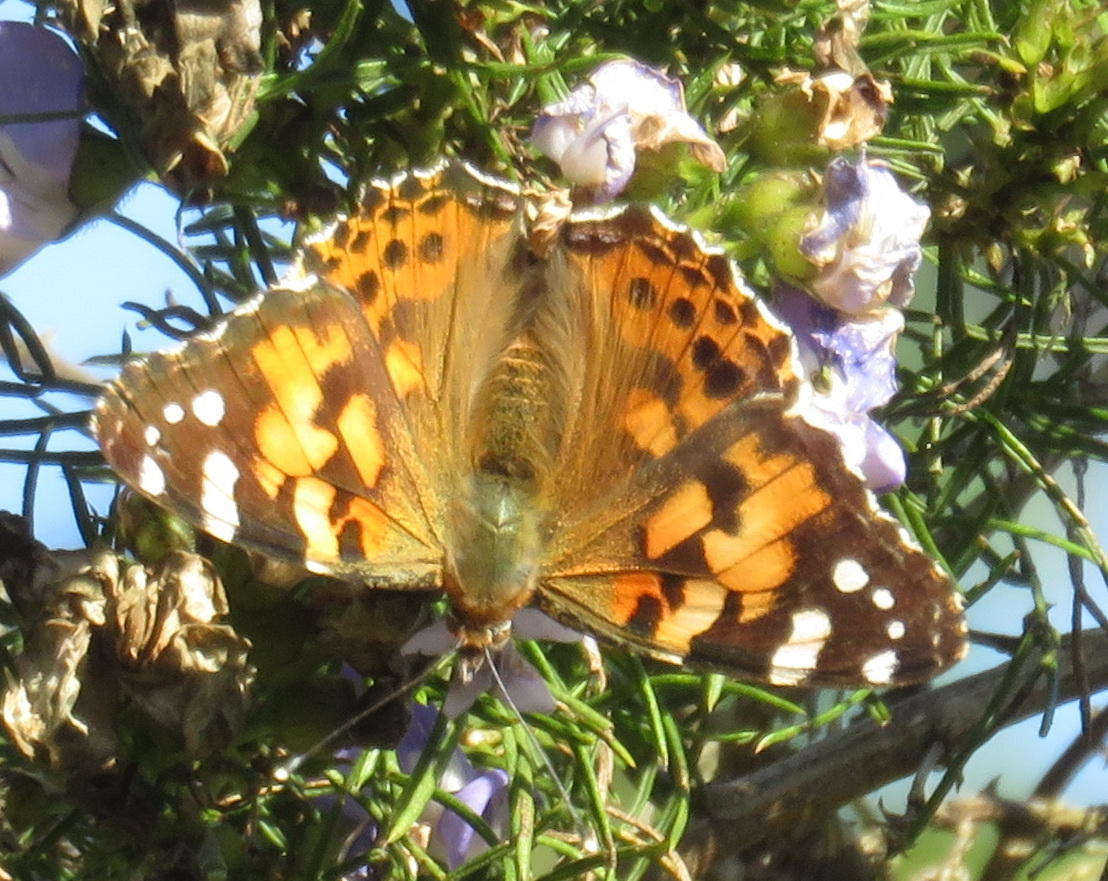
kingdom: Animalia
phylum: Arthropoda
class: Insecta
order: Lepidoptera
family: Nymphalidae
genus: Vanessa
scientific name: Vanessa cardui
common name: Painted lady
